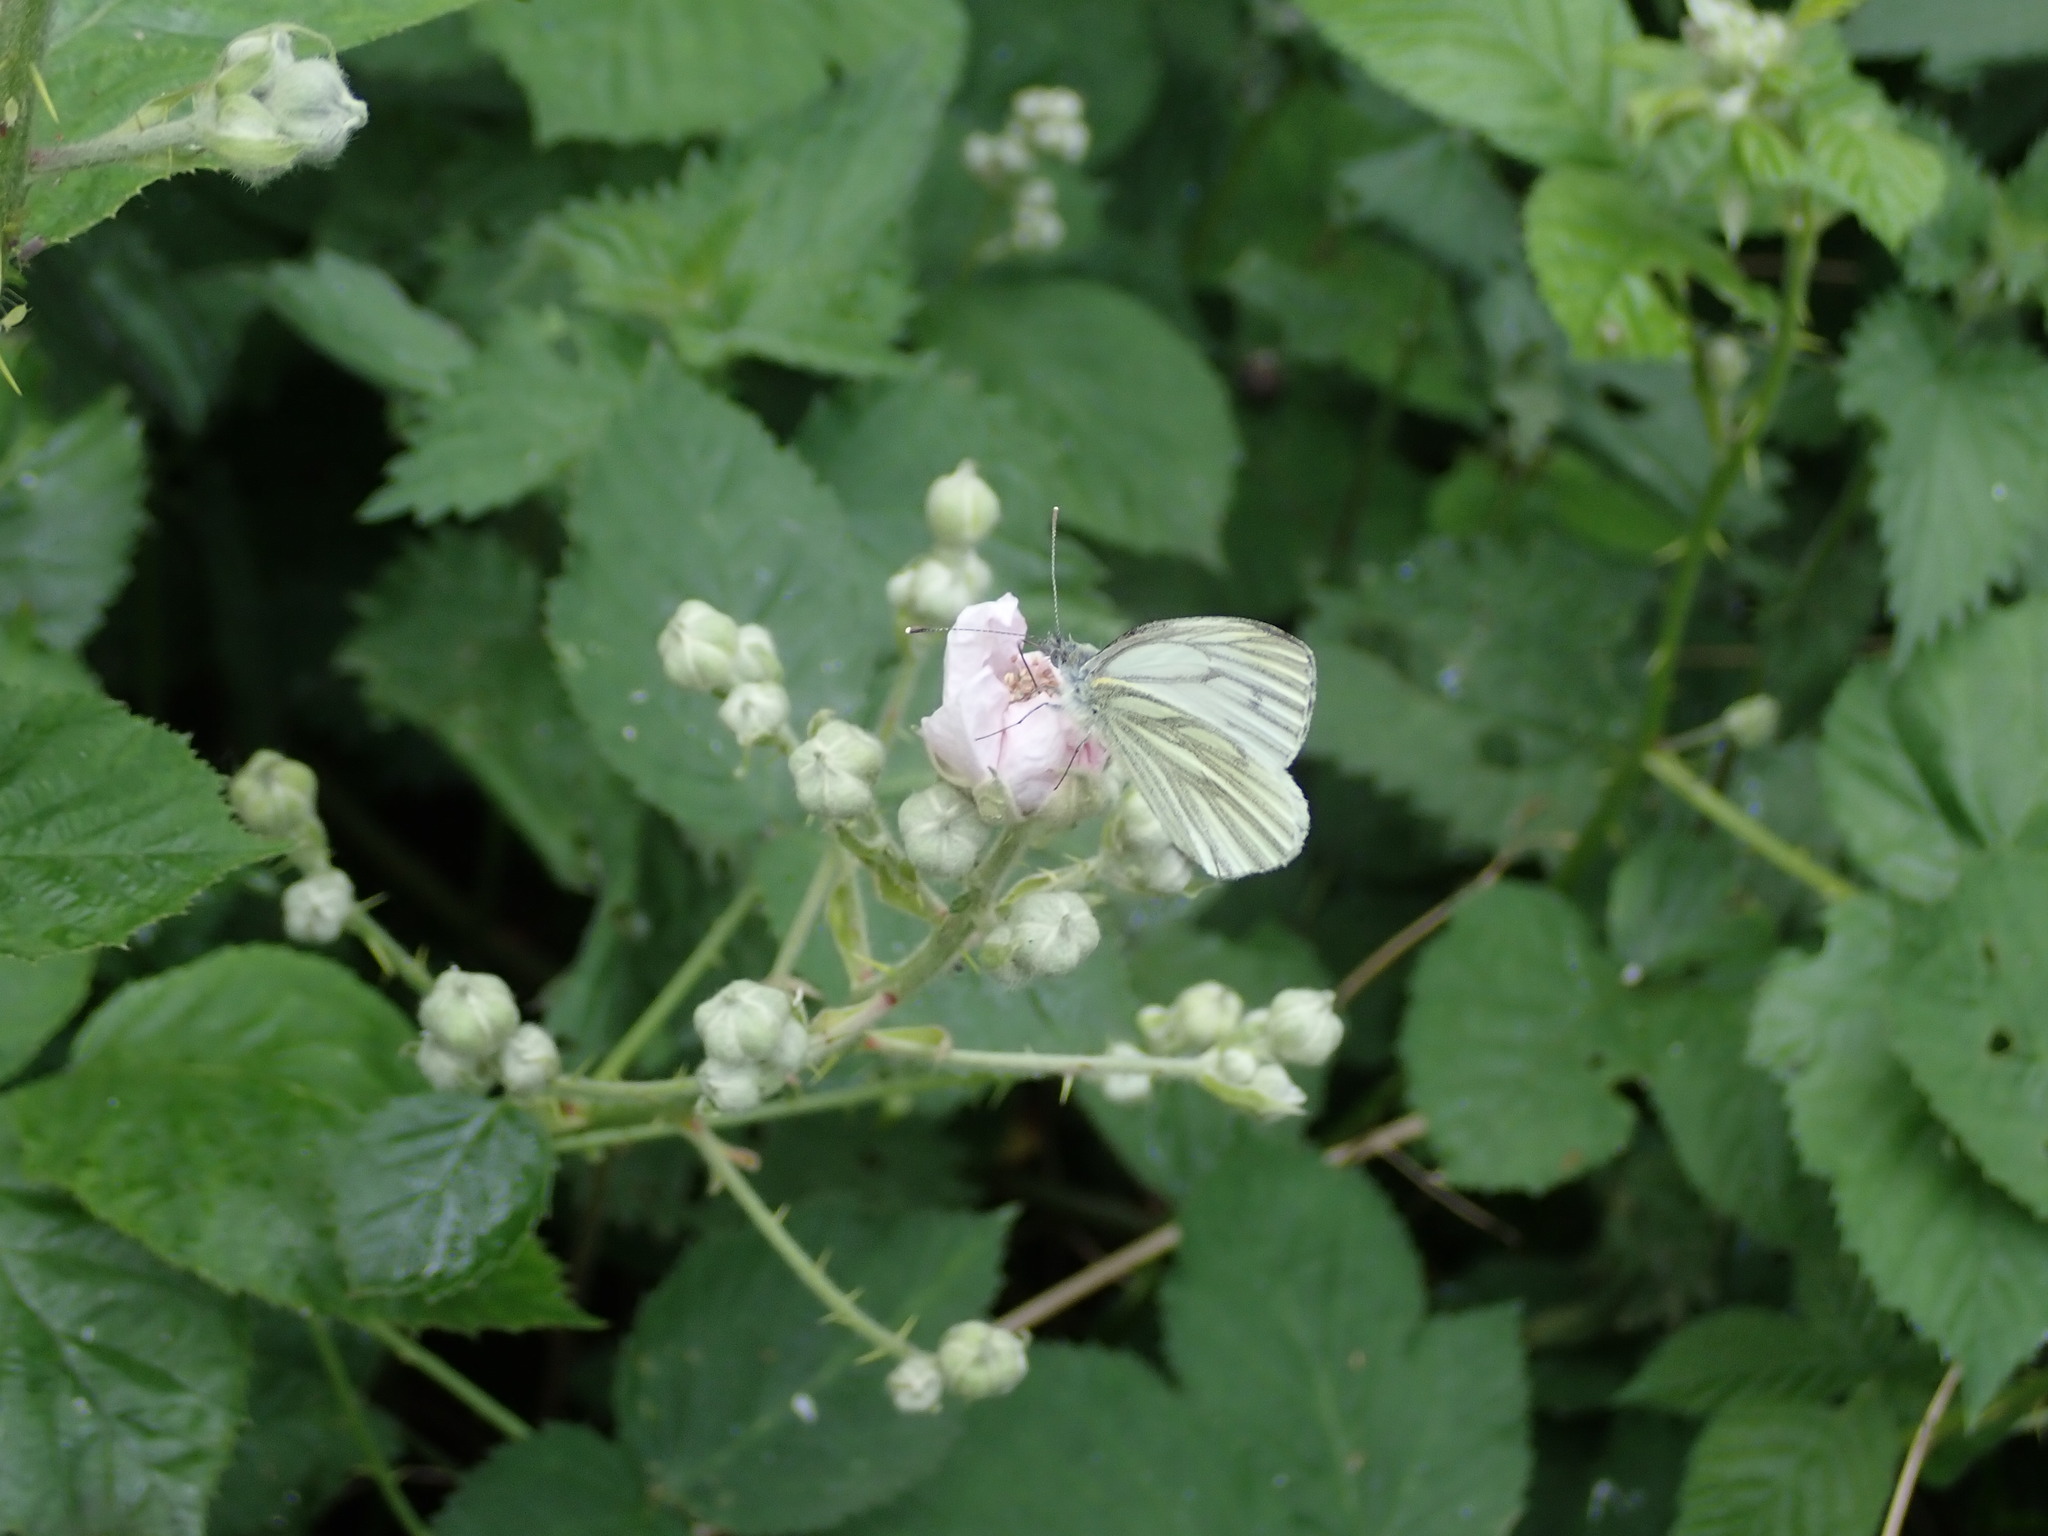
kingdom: Animalia
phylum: Arthropoda
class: Insecta
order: Lepidoptera
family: Pieridae
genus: Pieris
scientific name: Pieris napi
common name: Green-veined white
